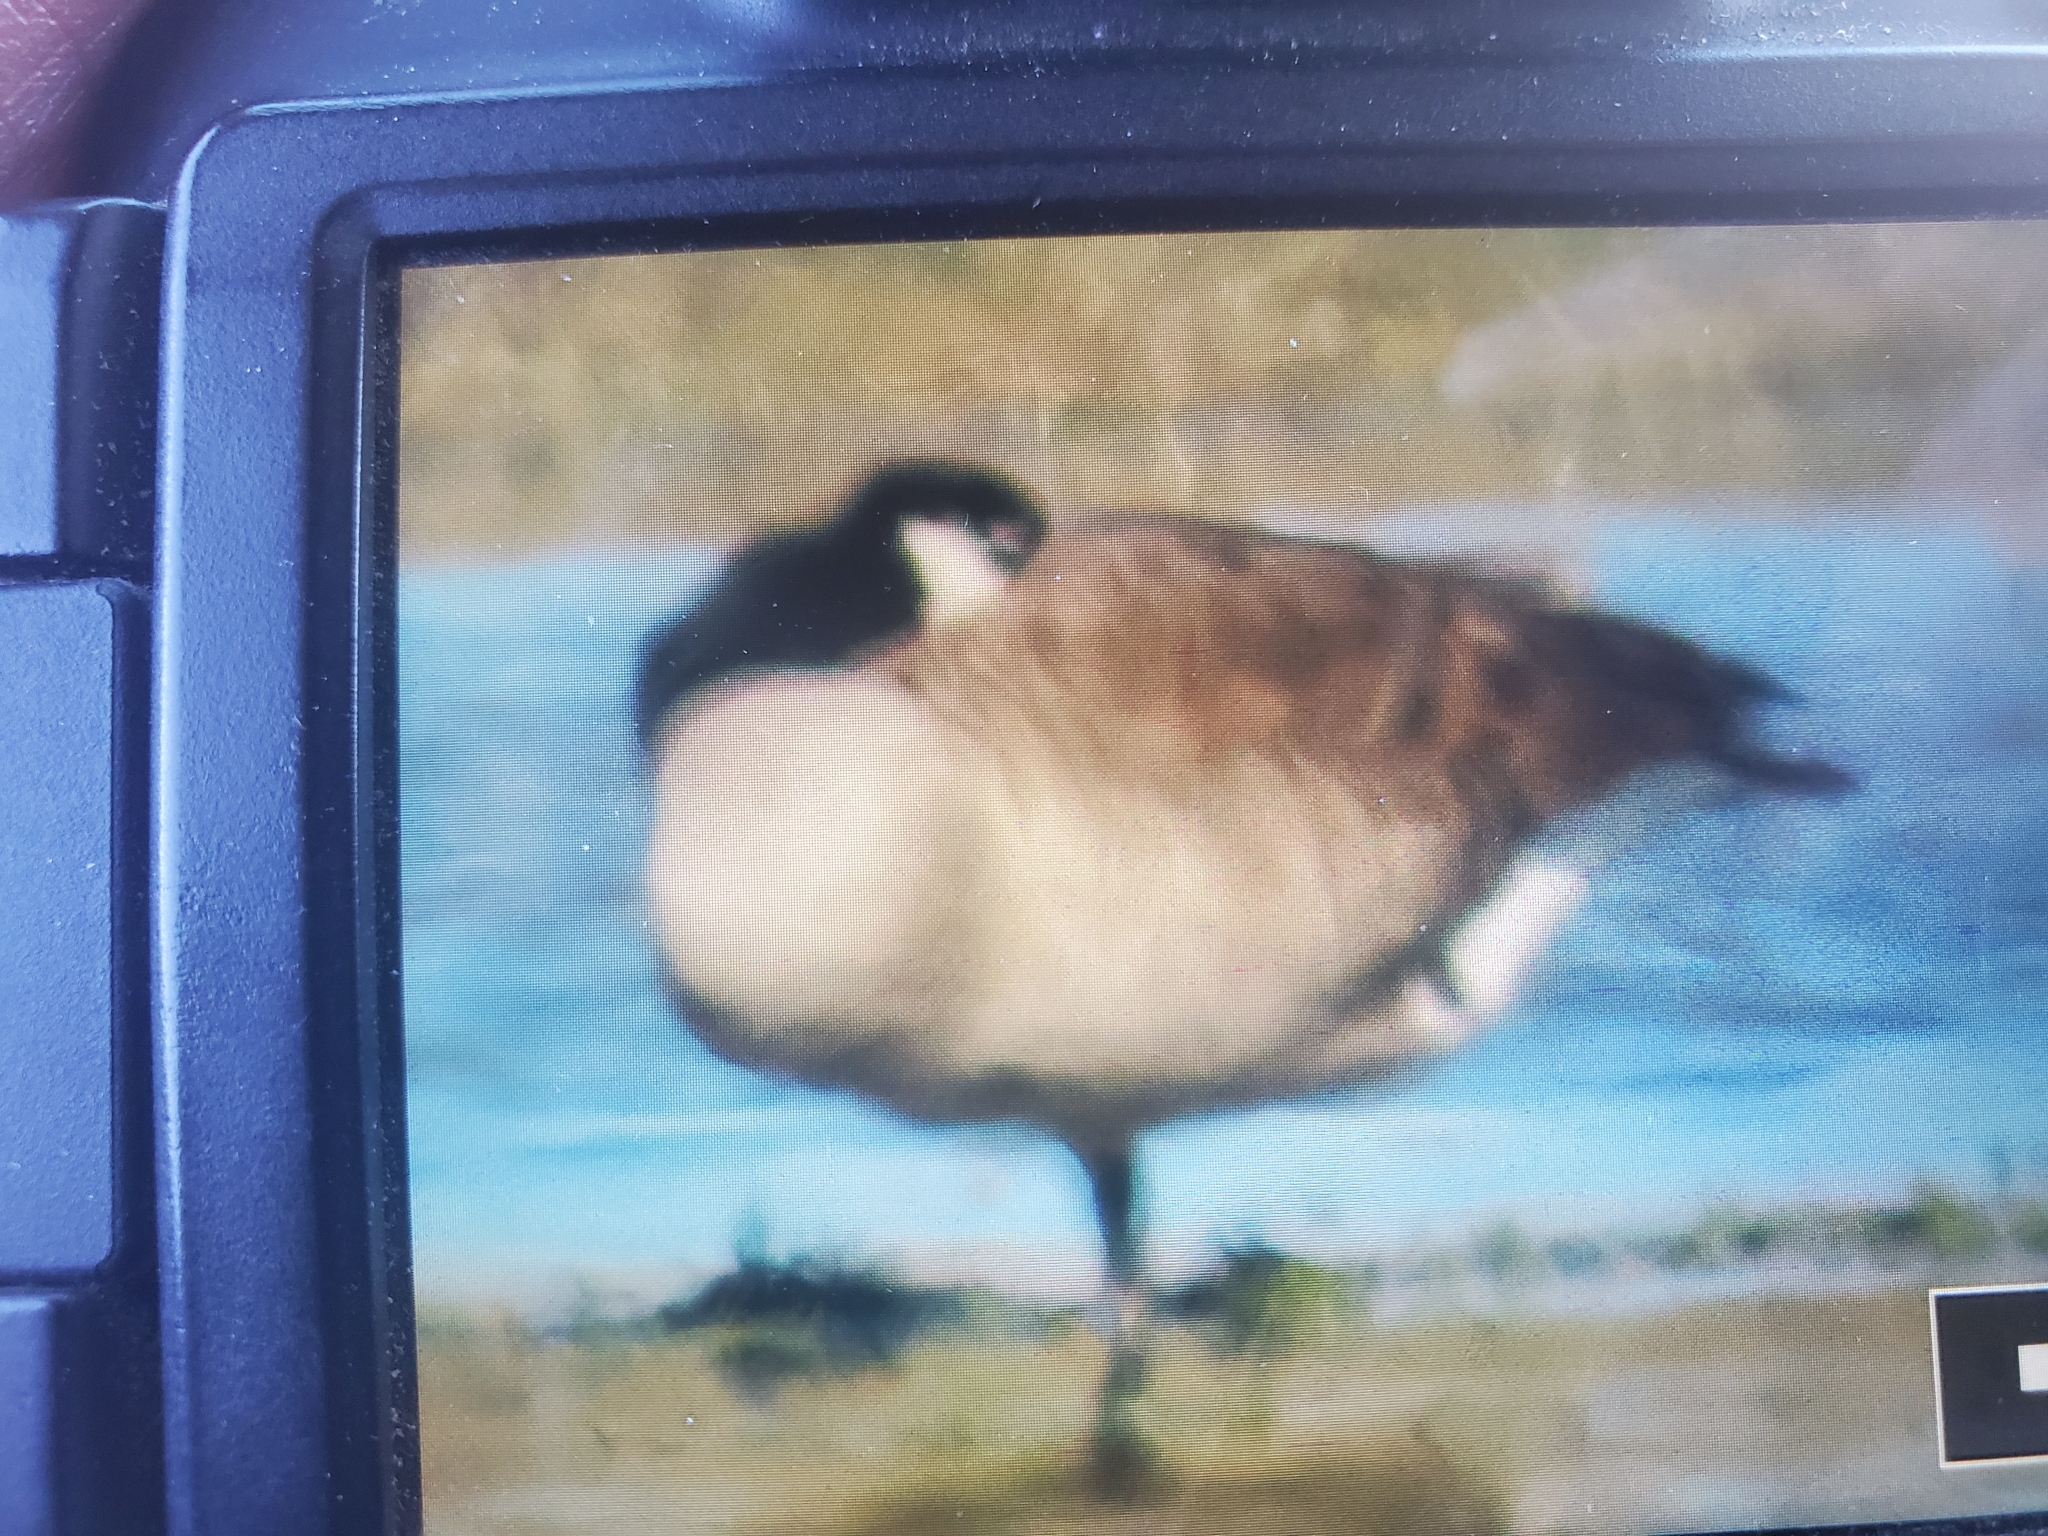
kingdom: Animalia
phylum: Chordata
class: Aves
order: Anseriformes
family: Anatidae
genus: Branta
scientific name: Branta canadensis
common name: Canada goose
